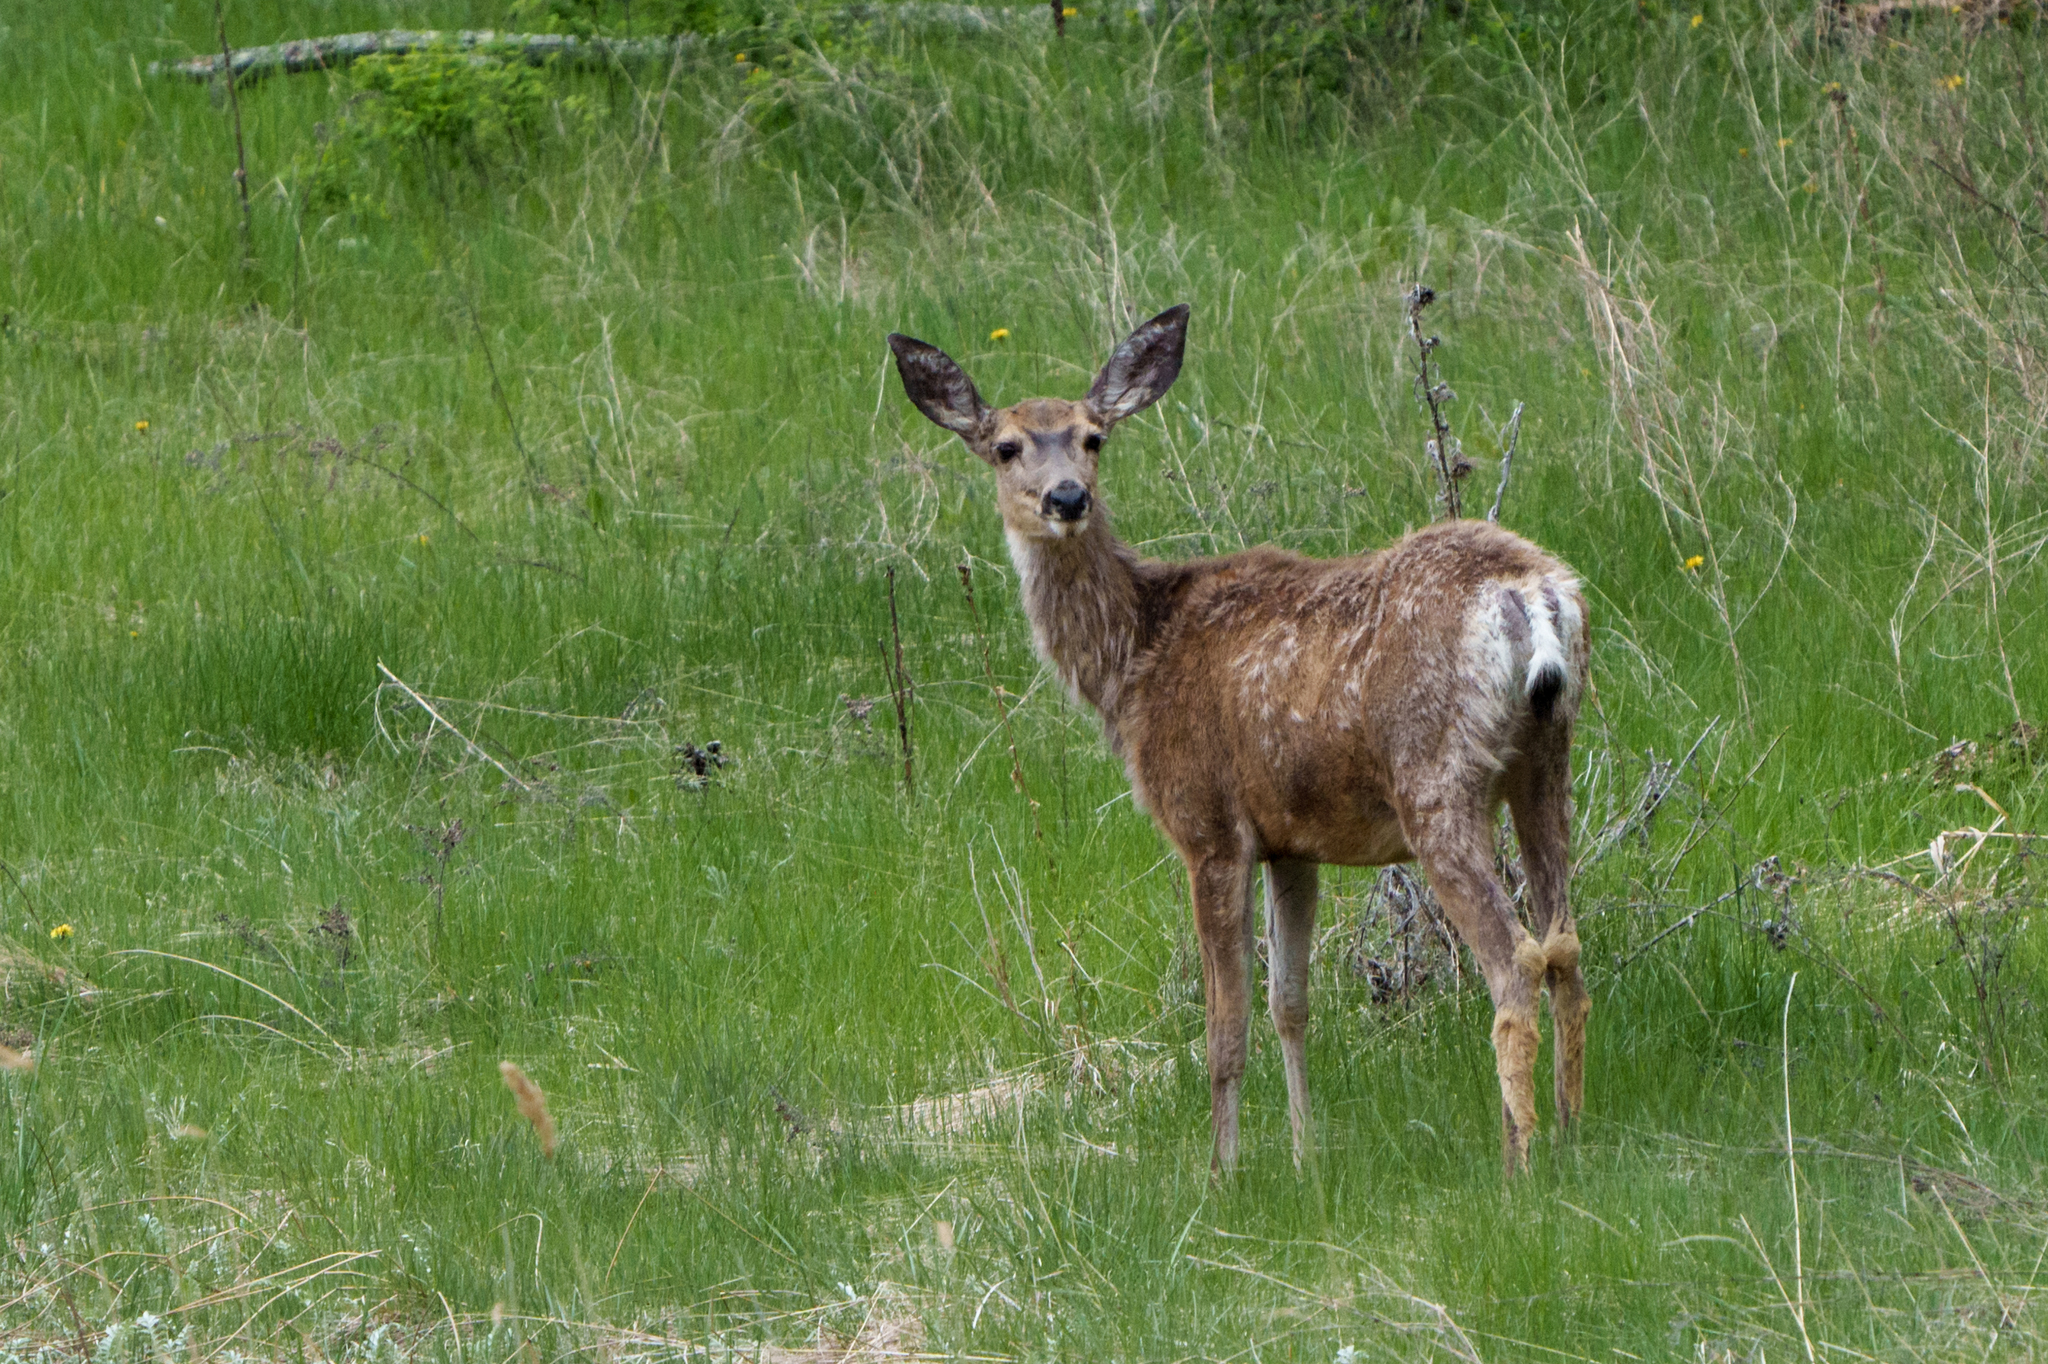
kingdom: Animalia
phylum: Chordata
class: Mammalia
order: Artiodactyla
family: Cervidae
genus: Odocoileus
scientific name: Odocoileus hemionus
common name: Mule deer
